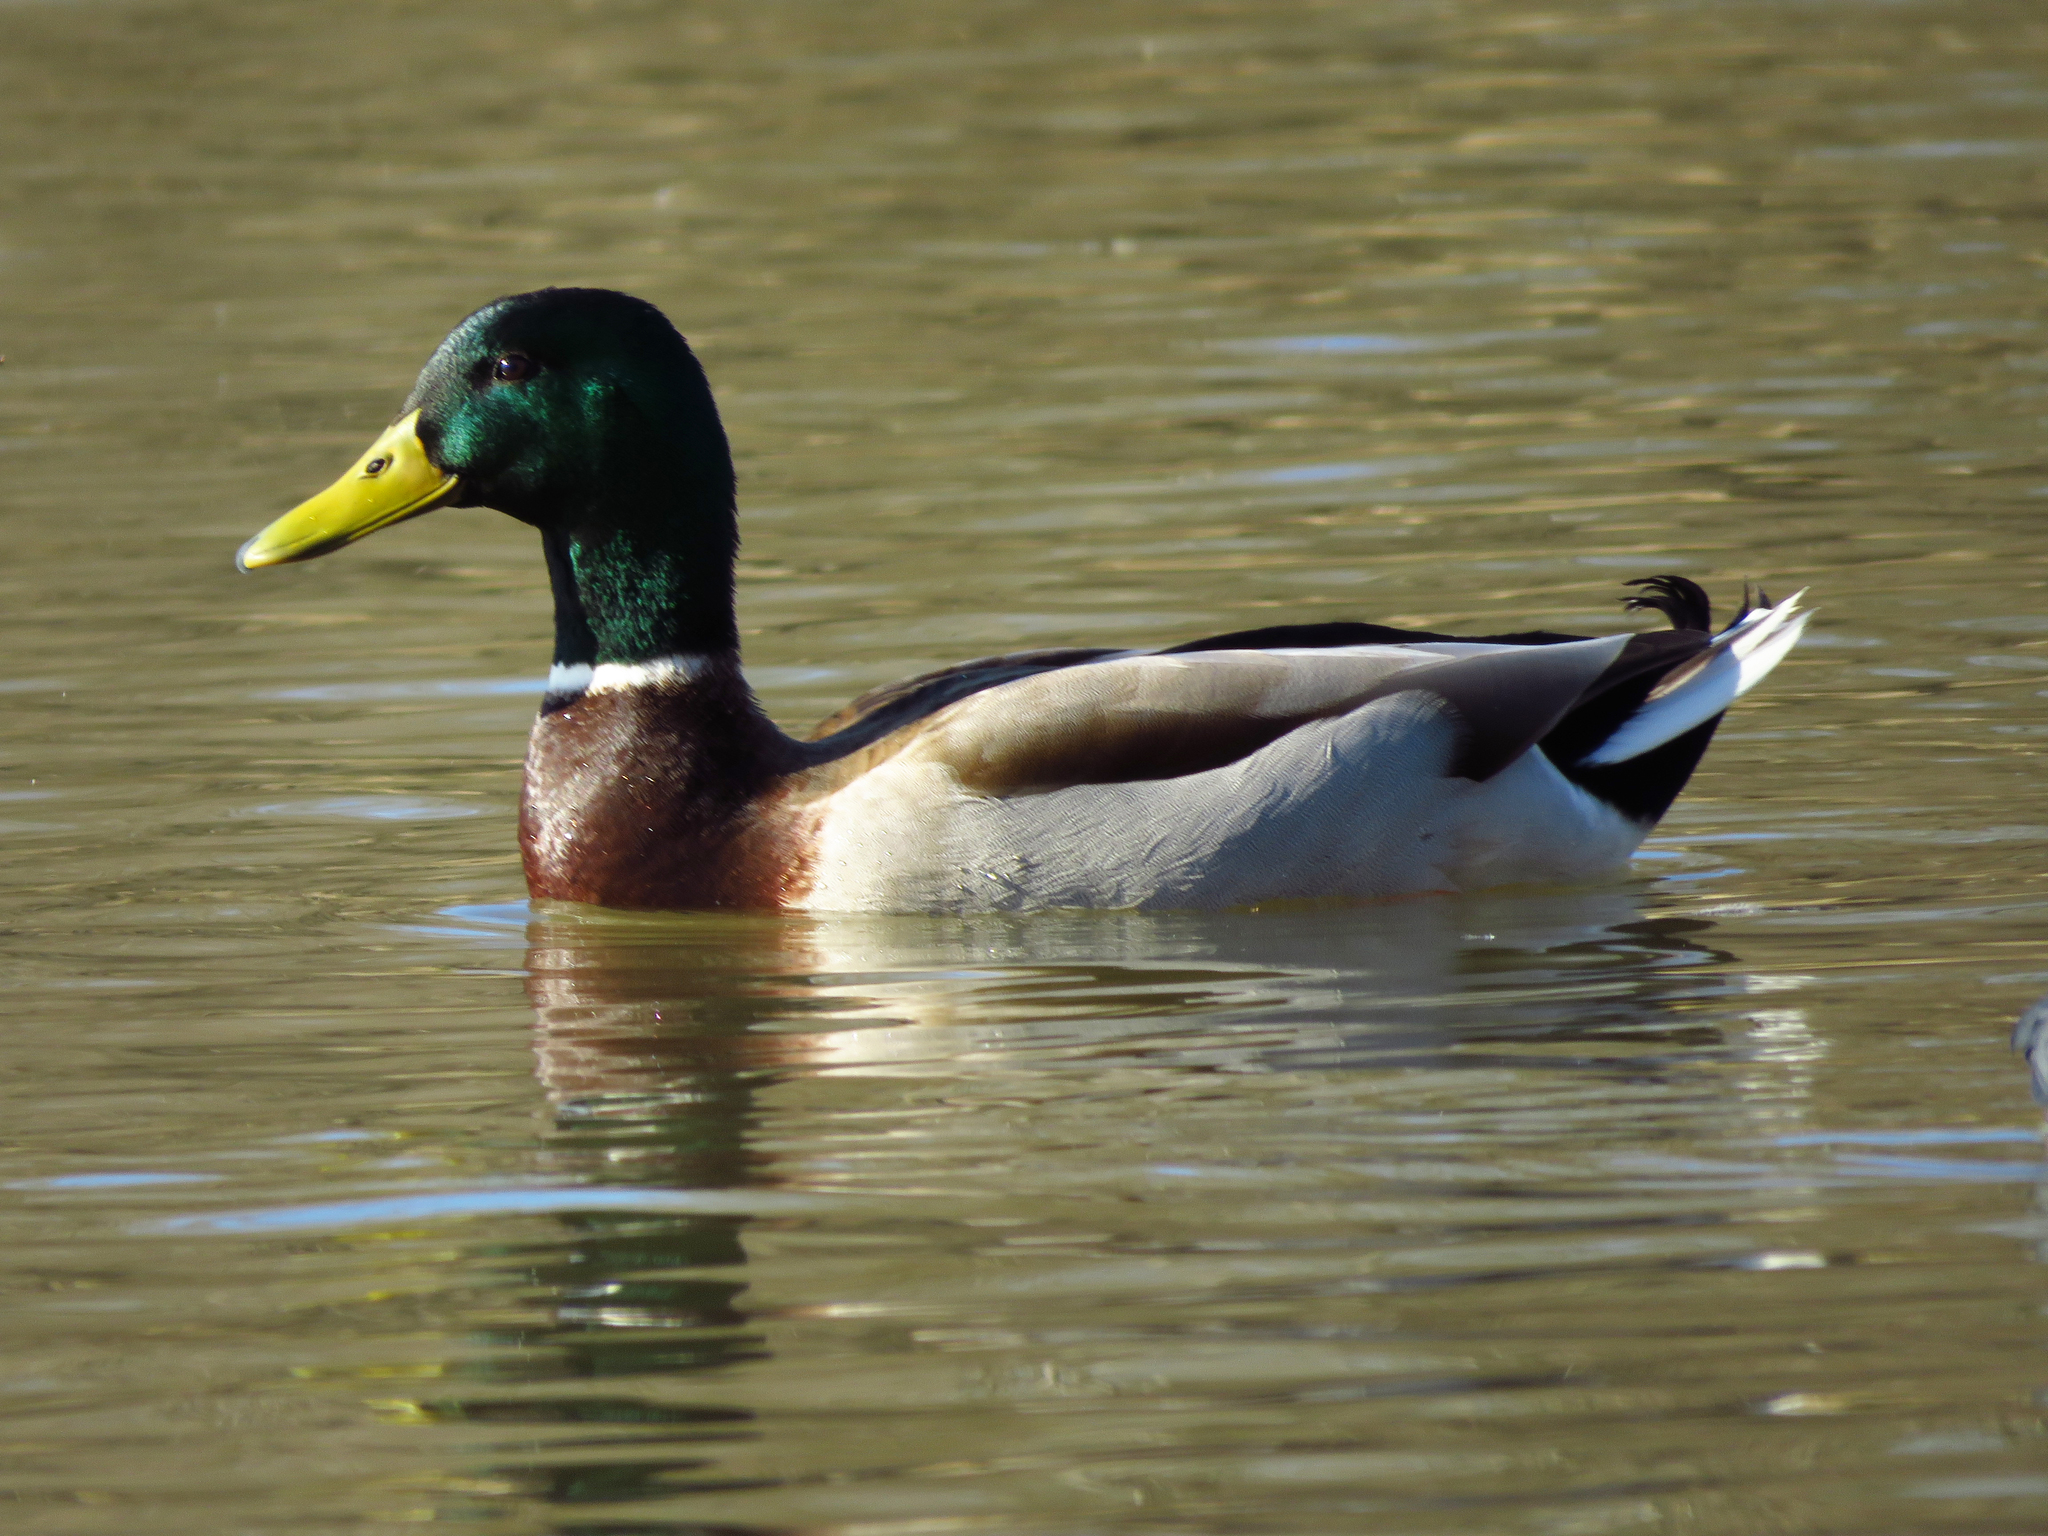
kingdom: Animalia
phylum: Chordata
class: Aves
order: Anseriformes
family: Anatidae
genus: Anas
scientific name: Anas platyrhynchos
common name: Mallard
